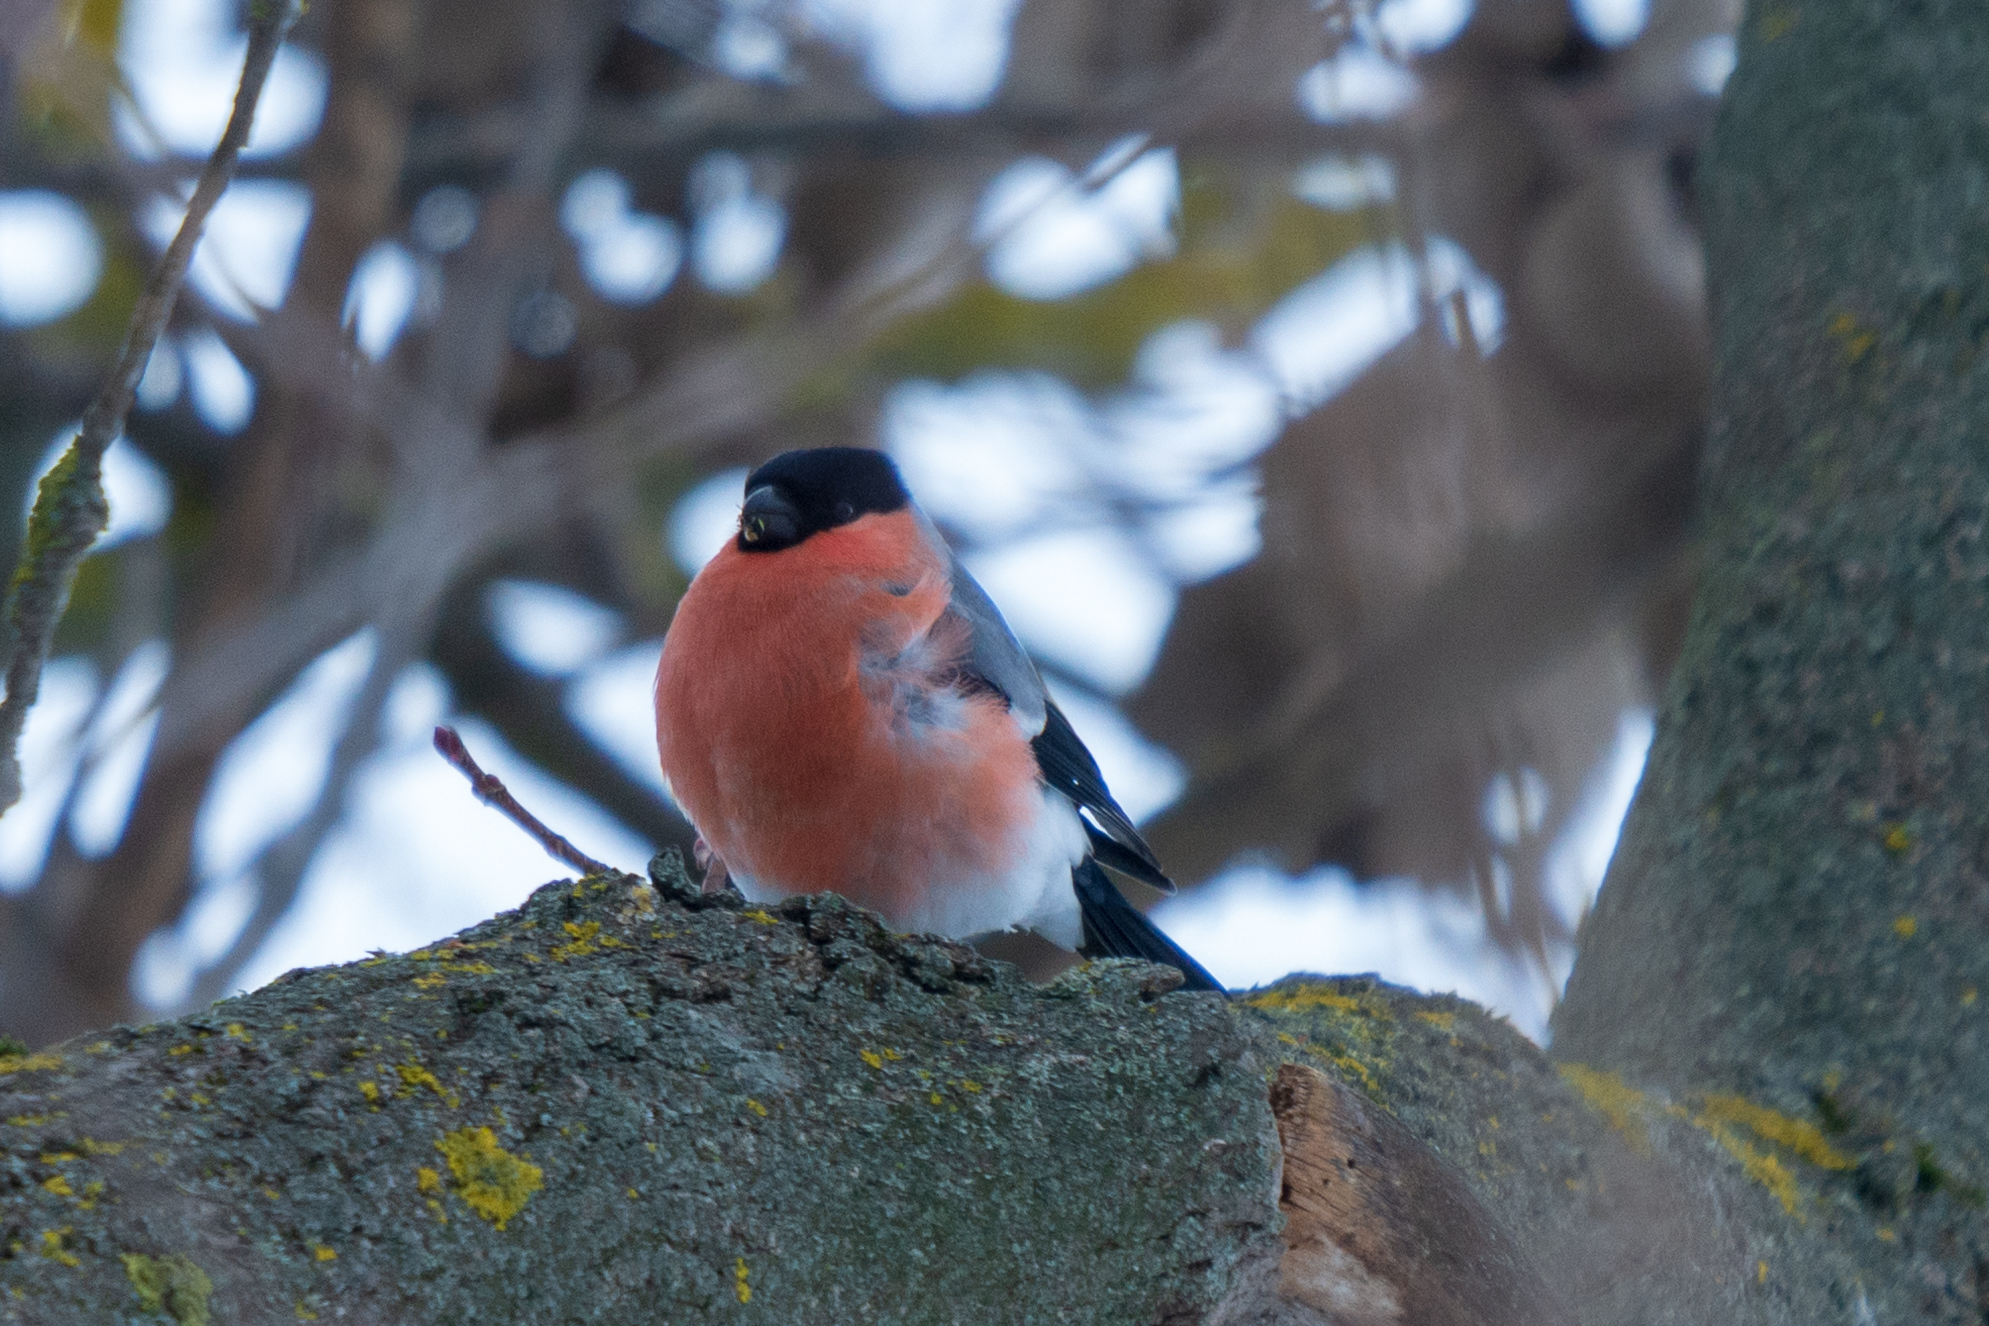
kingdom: Animalia
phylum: Chordata
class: Aves
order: Passeriformes
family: Fringillidae
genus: Pyrrhula
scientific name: Pyrrhula pyrrhula
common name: Eurasian bullfinch
